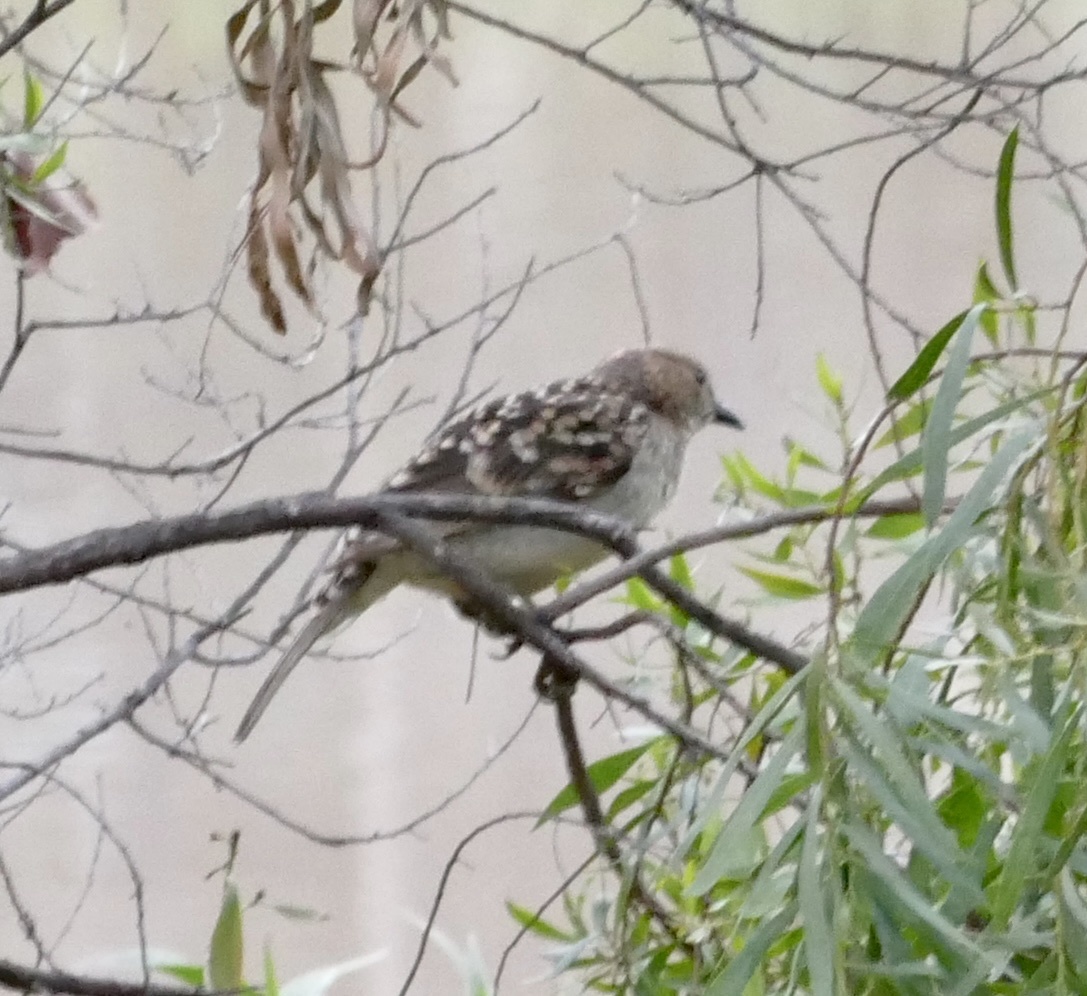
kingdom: Animalia
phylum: Chordata
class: Aves
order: Passeriformes
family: Ptilonorhynchidae
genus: Chlamydera
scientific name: Chlamydera maculata
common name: Spotted bowerbird
